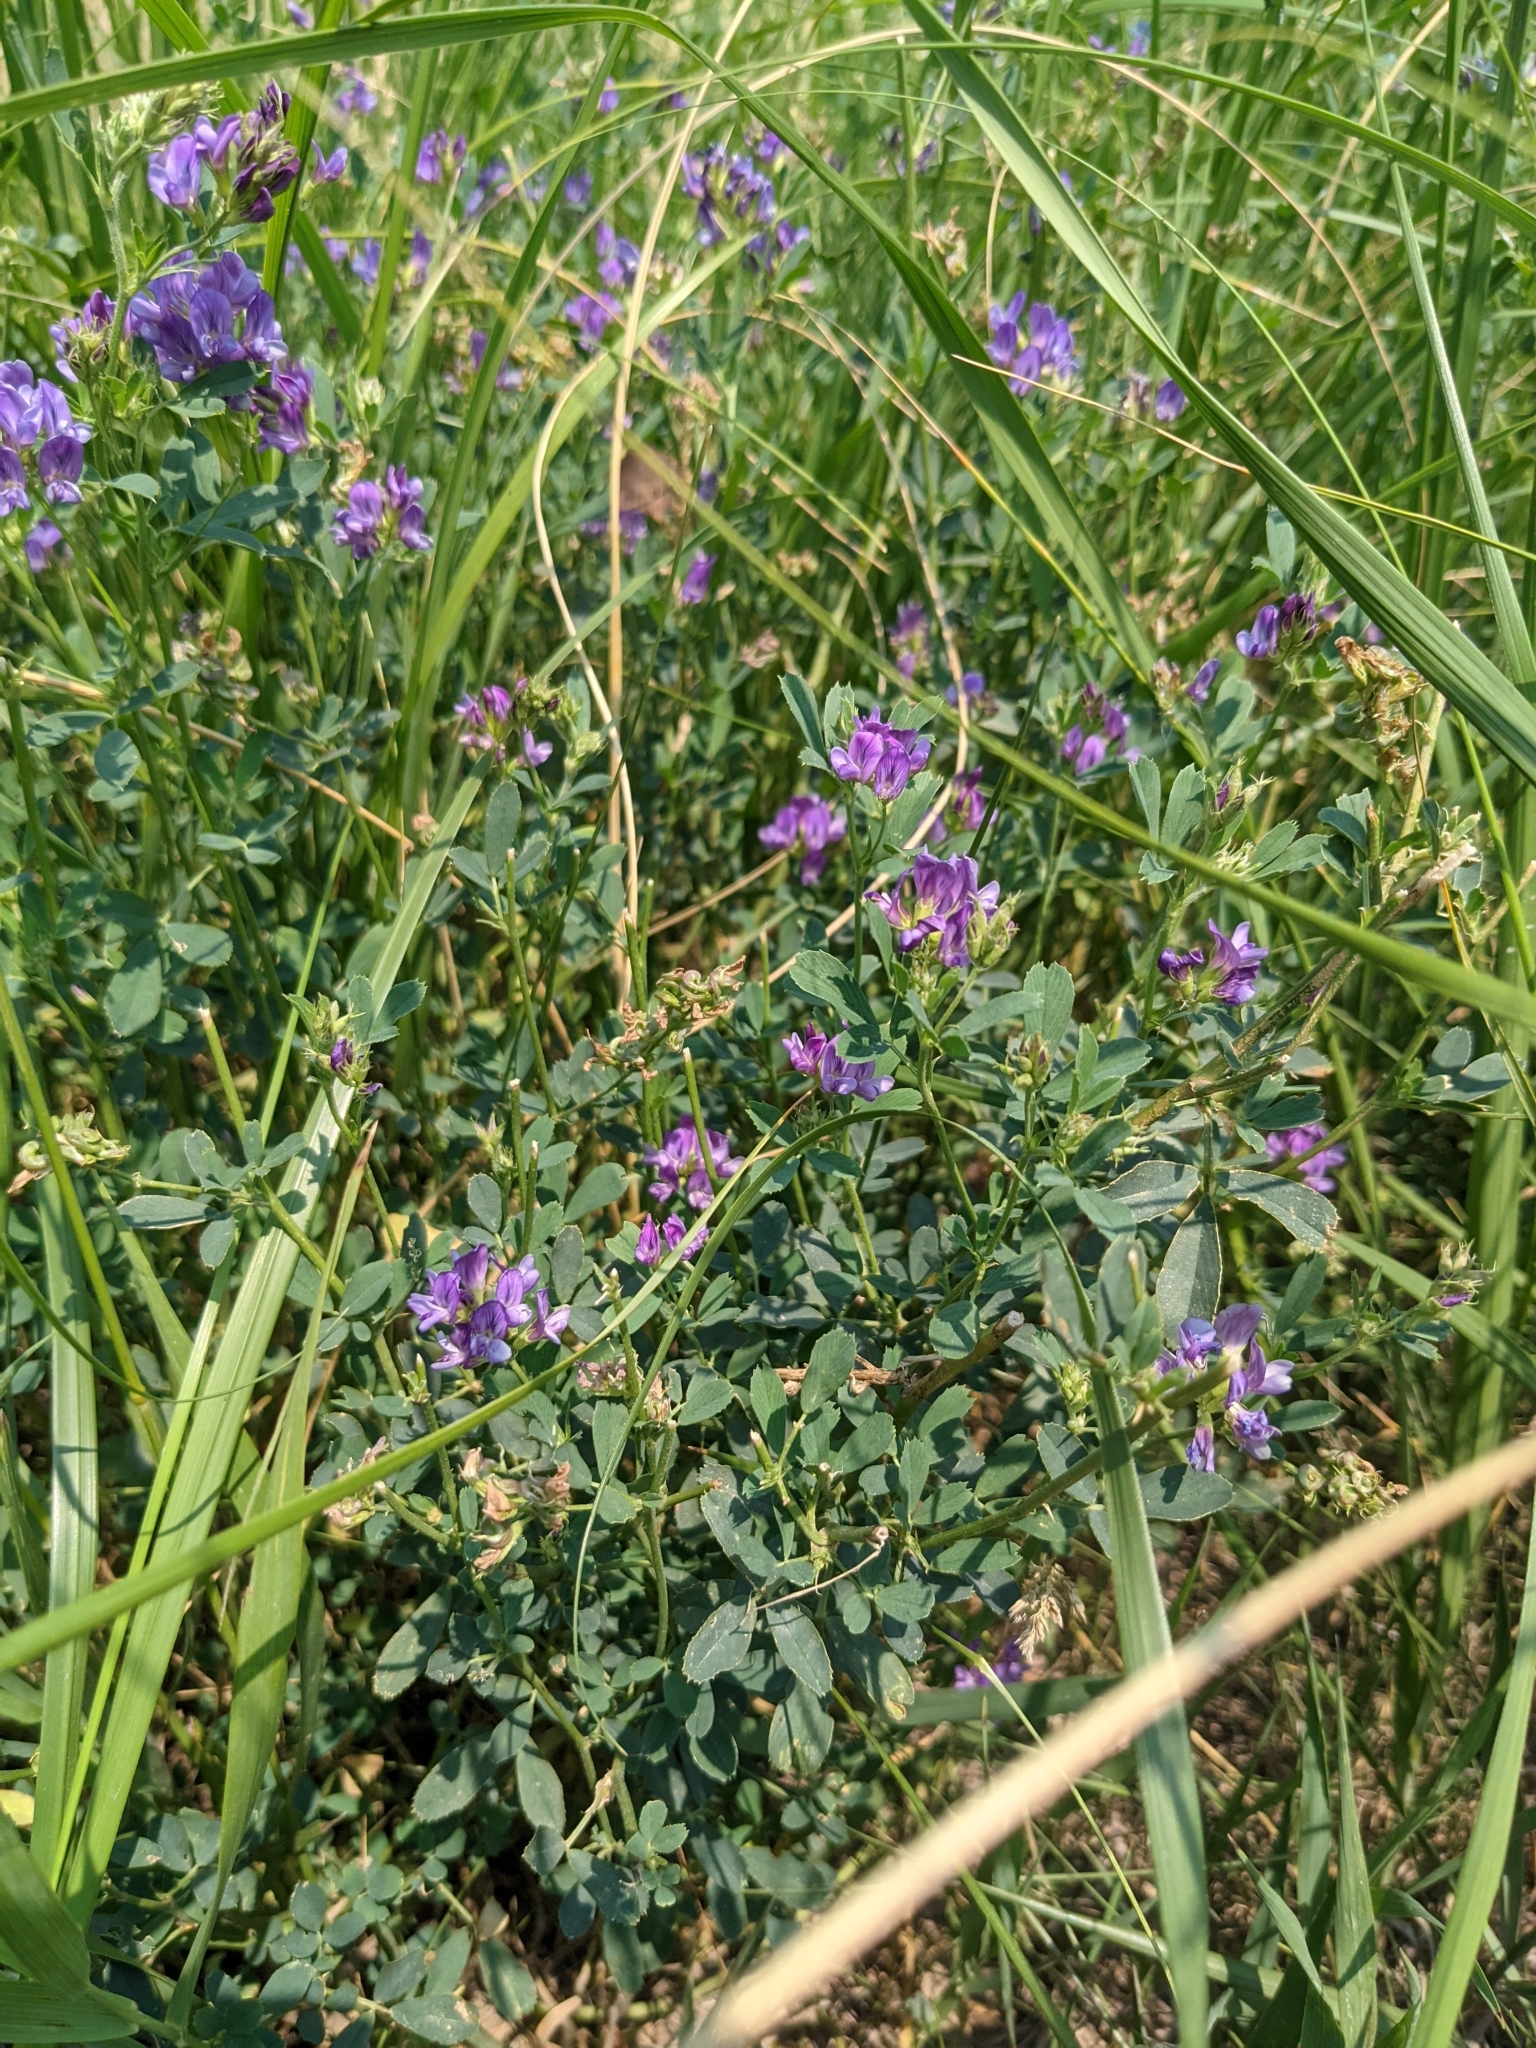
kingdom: Plantae
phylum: Tracheophyta
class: Magnoliopsida
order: Fabales
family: Fabaceae
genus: Medicago
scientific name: Medicago sativa
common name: Alfalfa
